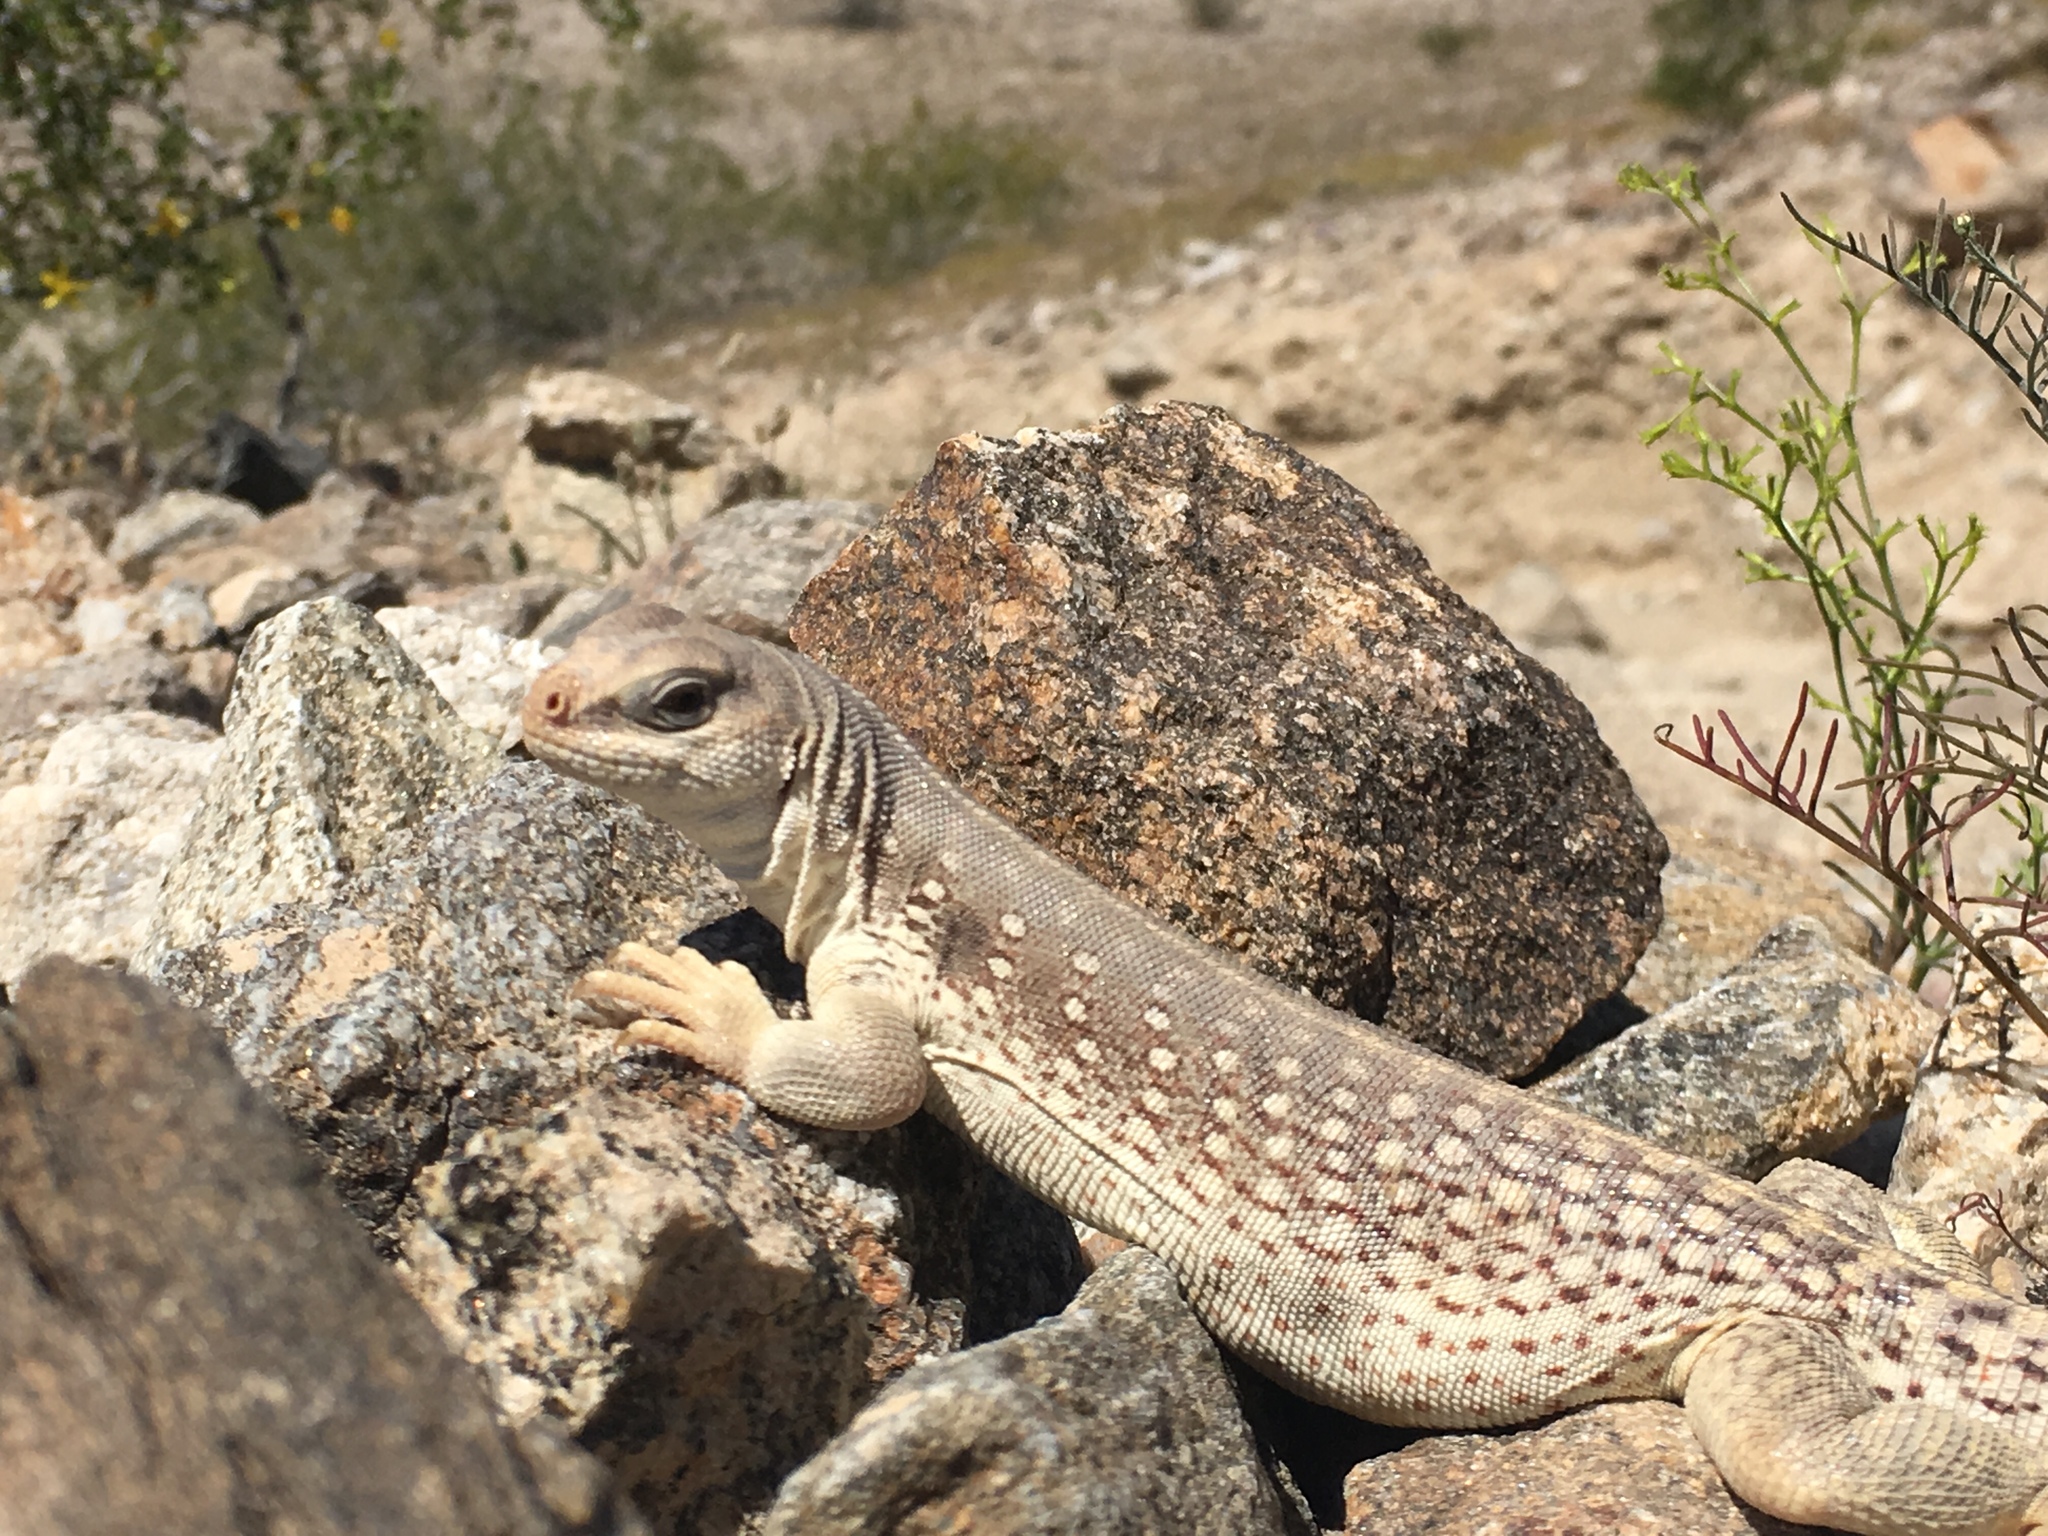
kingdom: Animalia
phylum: Chordata
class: Squamata
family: Iguanidae
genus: Dipsosaurus
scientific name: Dipsosaurus dorsalis
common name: Desert iguana
